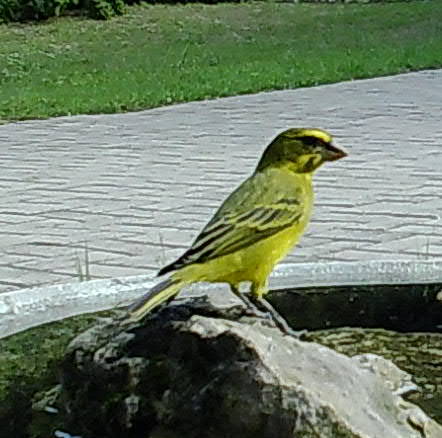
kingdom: Animalia
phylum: Chordata
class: Aves
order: Passeriformes
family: Fringillidae
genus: Crithagra
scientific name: Crithagra sulphurata
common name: Brimstone canary
